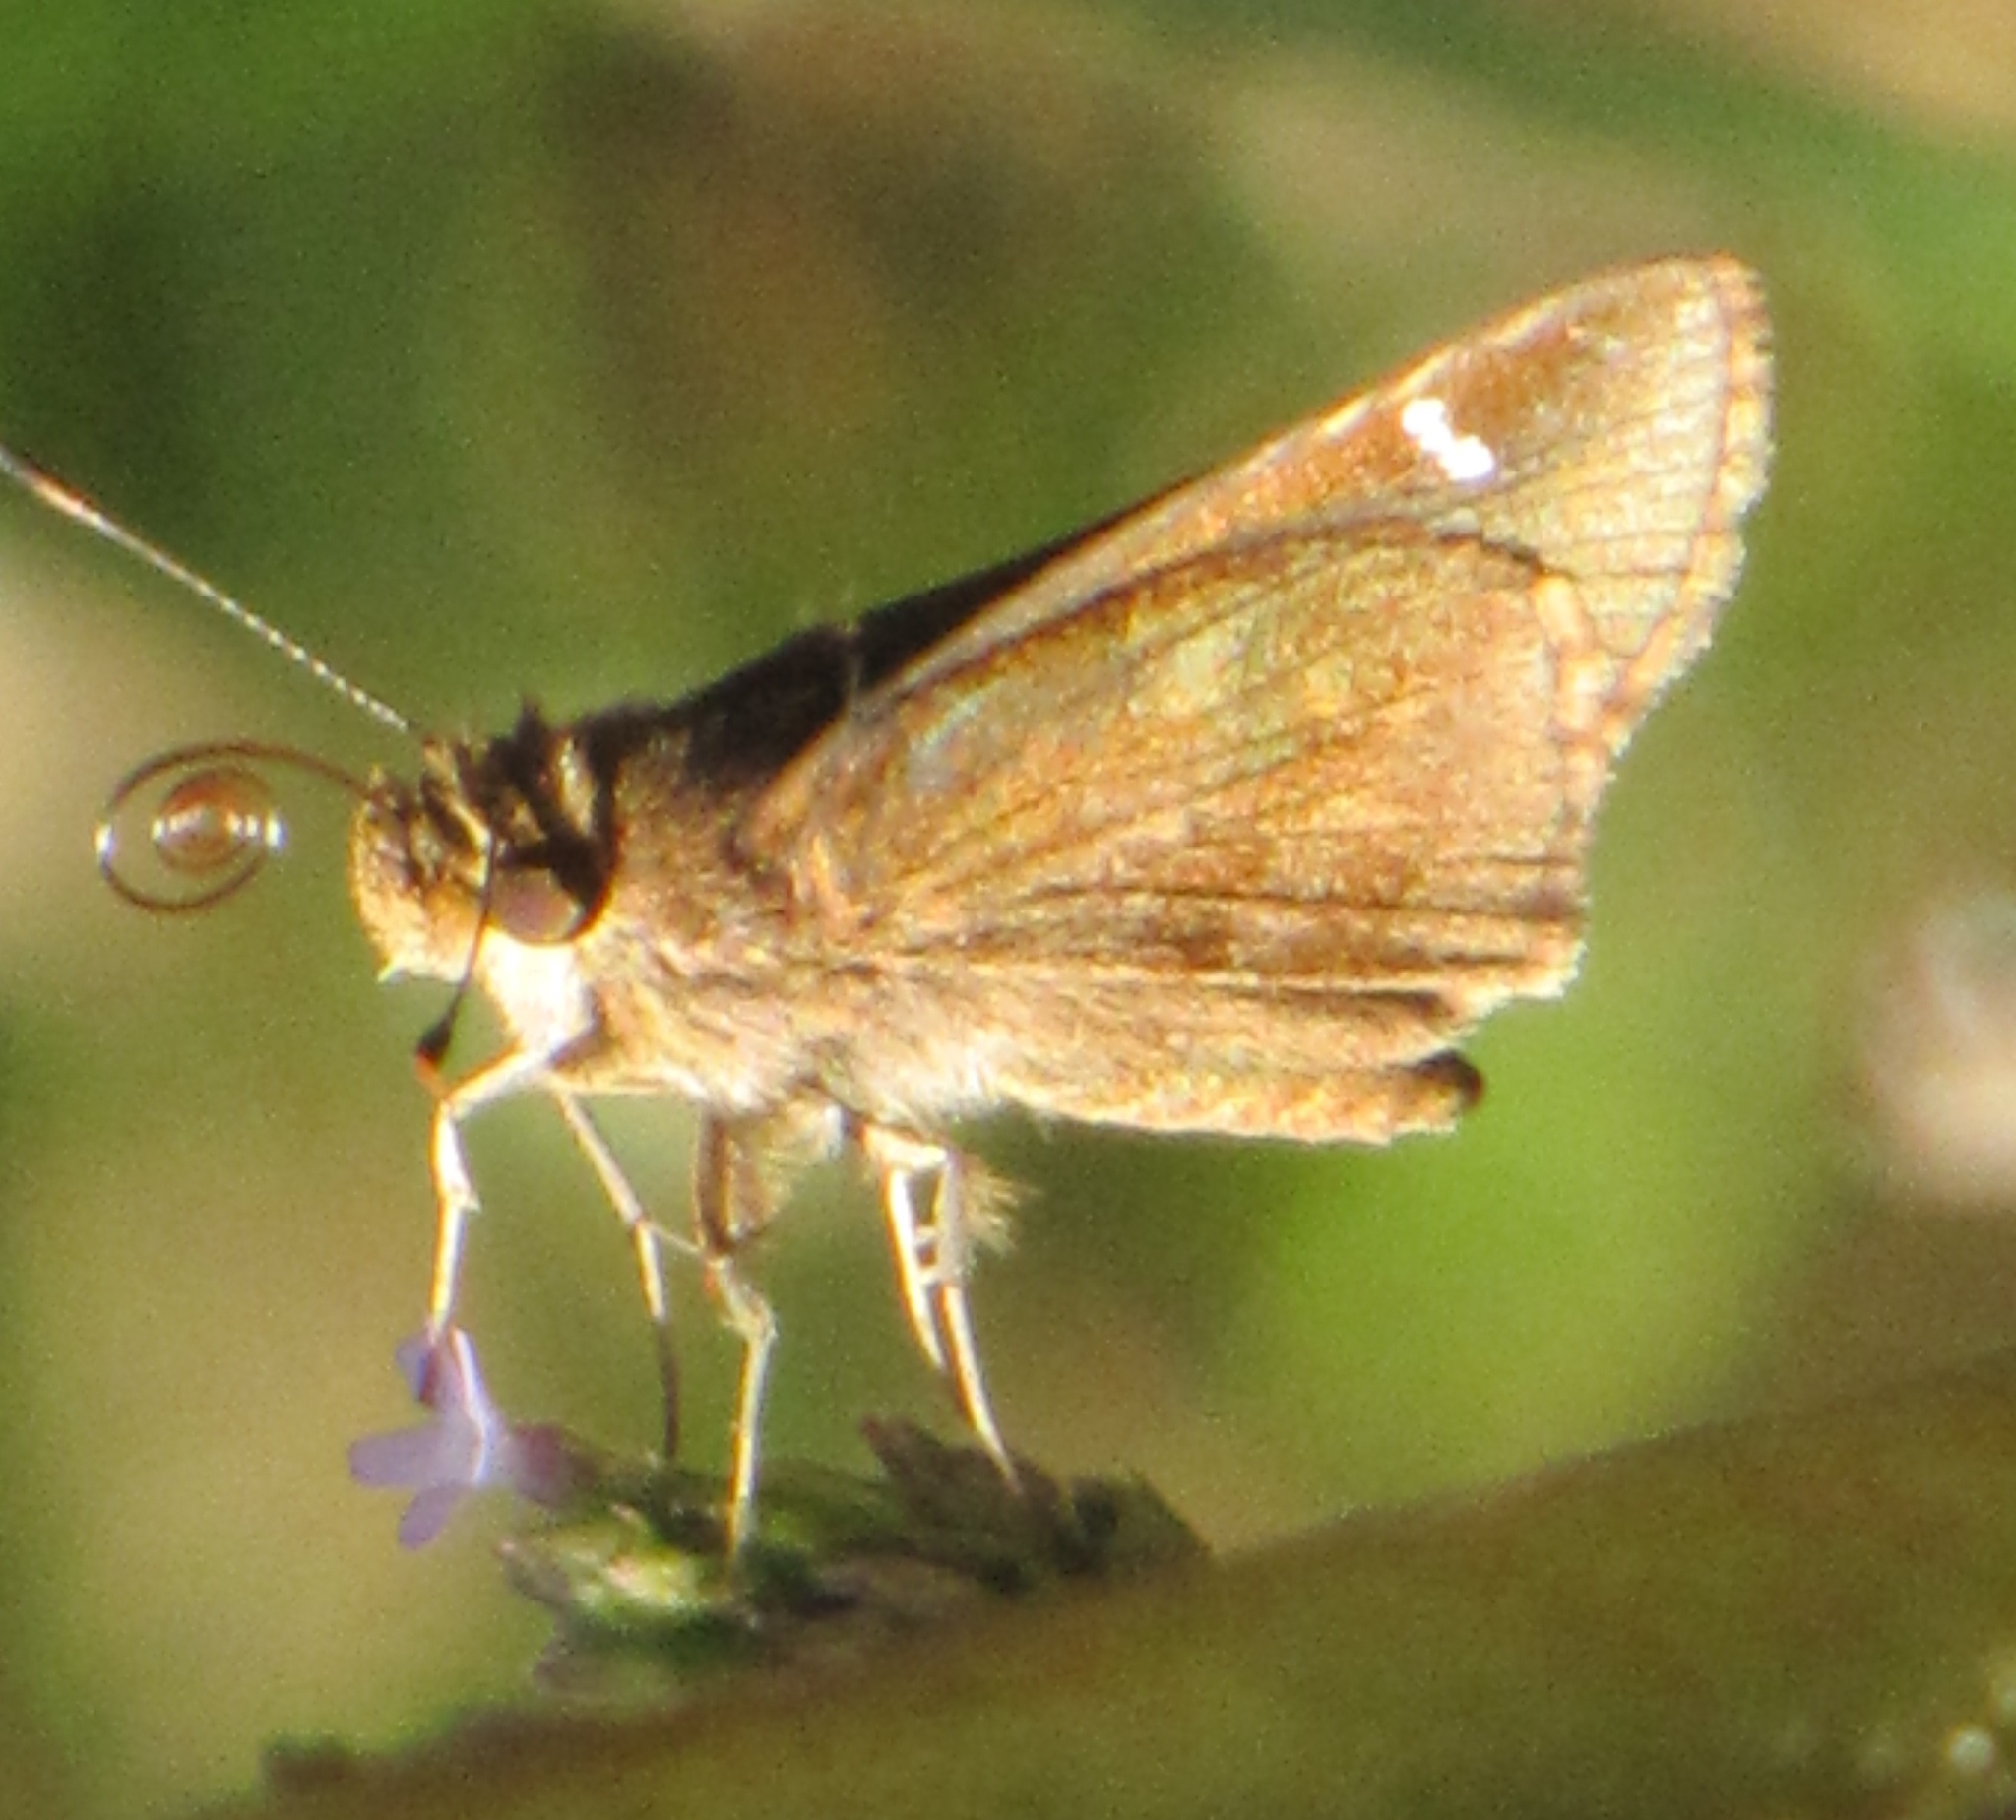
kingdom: Animalia
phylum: Arthropoda
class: Insecta
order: Lepidoptera
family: Hesperiidae
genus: Lerema
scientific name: Lerema accius
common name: Clouded skipper
